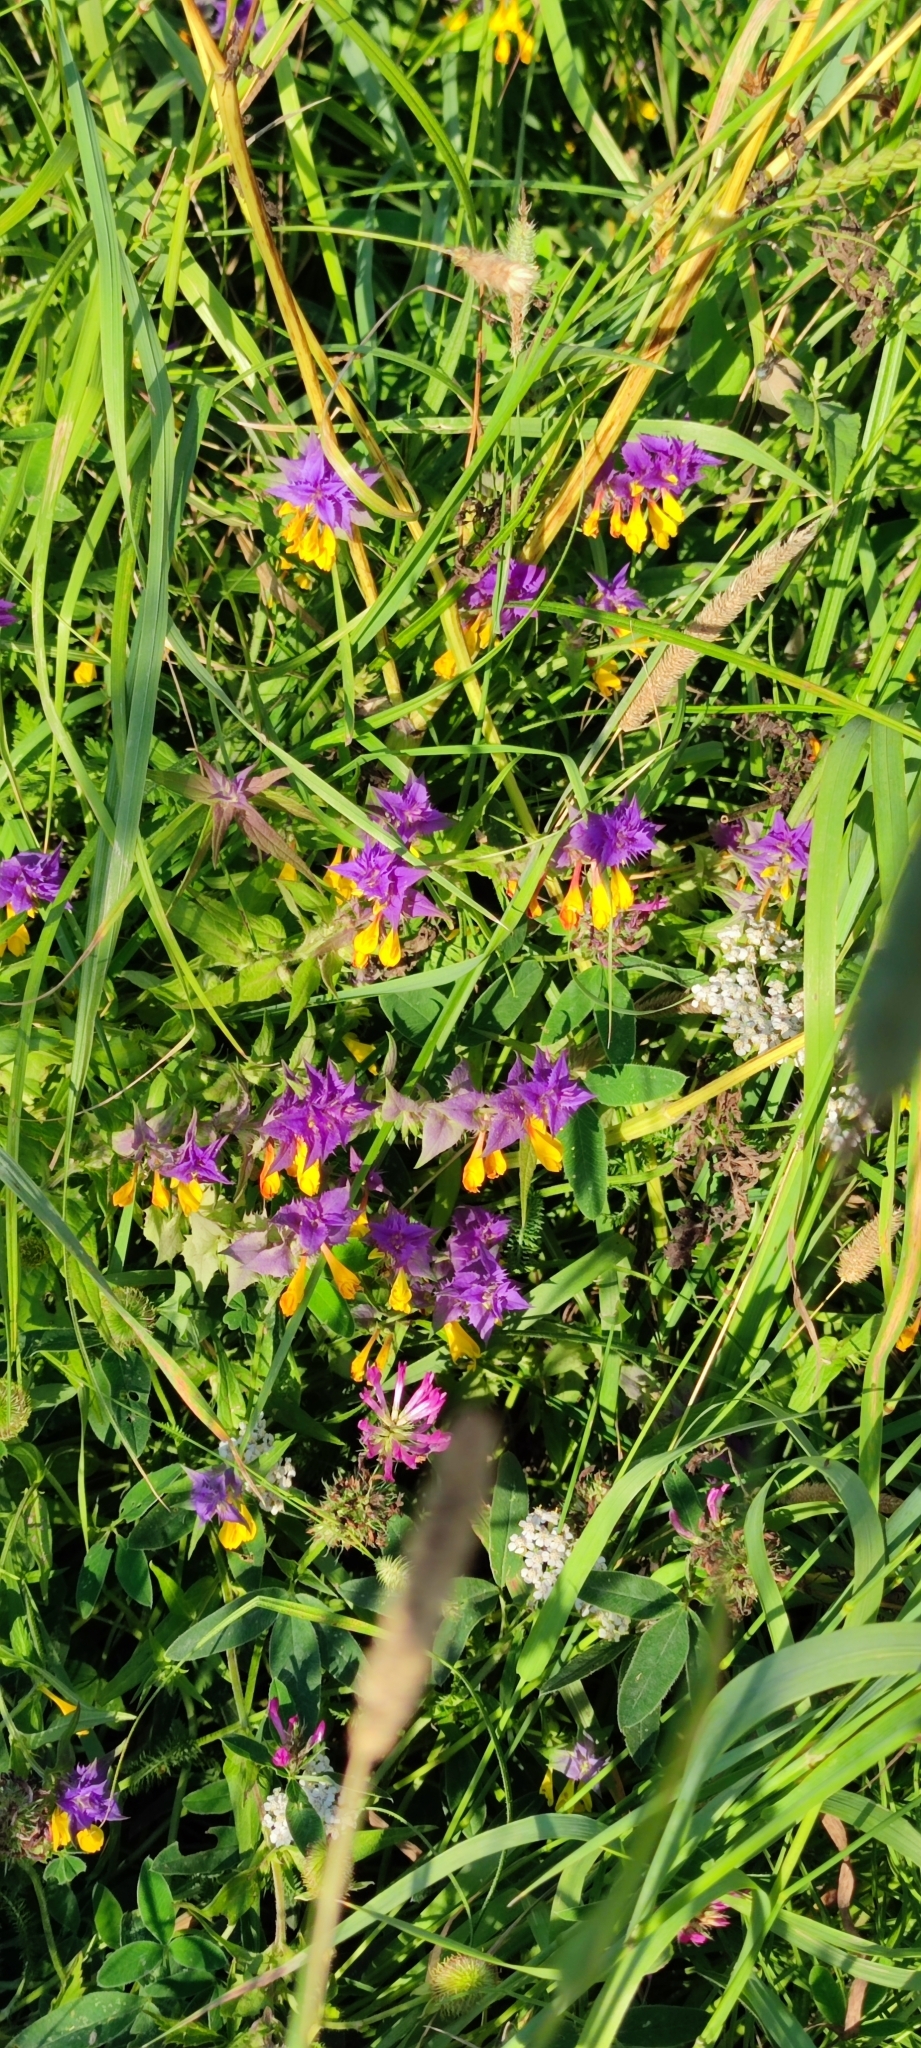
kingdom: Plantae
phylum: Tracheophyta
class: Magnoliopsida
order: Lamiales
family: Orobanchaceae
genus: Melampyrum
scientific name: Melampyrum nemorosum
